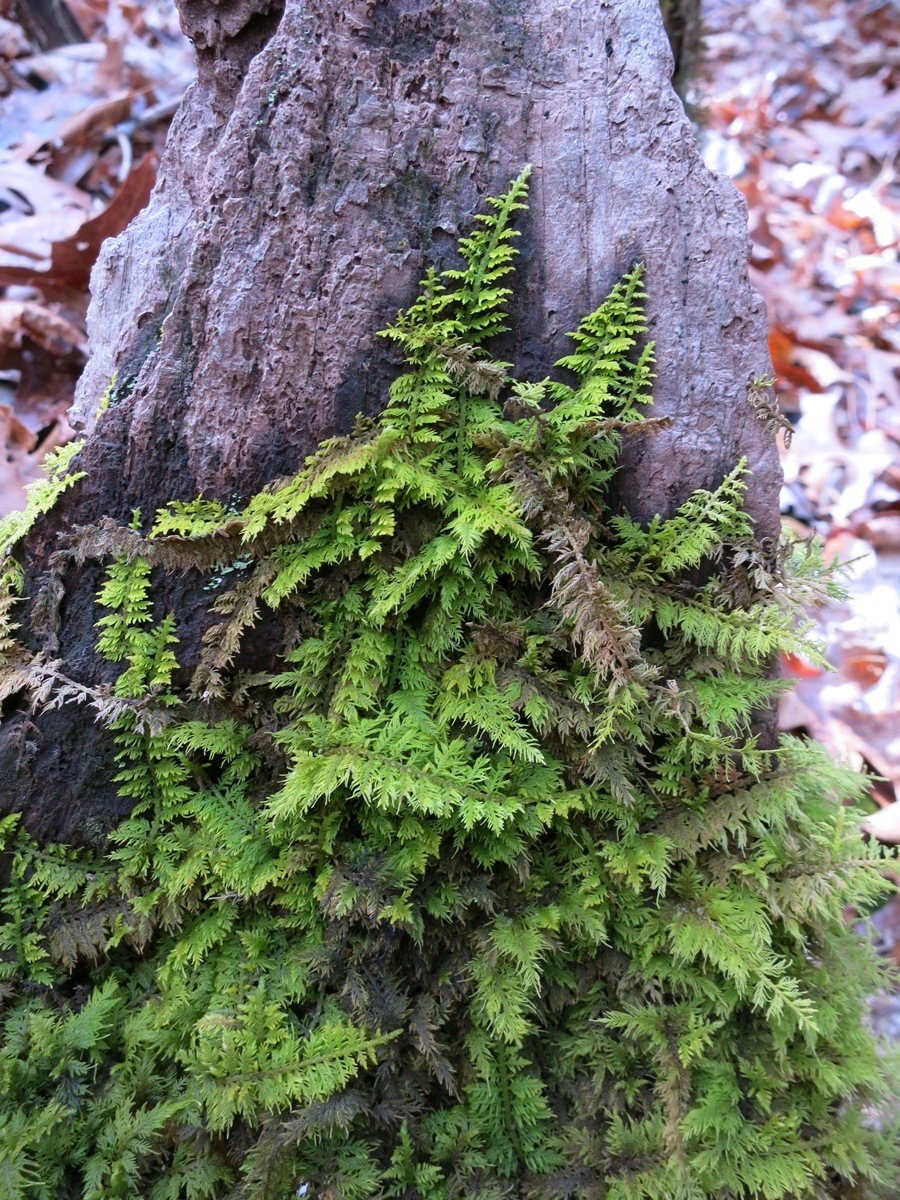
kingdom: Plantae
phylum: Bryophyta
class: Bryopsida
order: Hypnales
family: Thuidiaceae
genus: Thuidium
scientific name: Thuidium delicatulum
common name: Delicate fern moss
